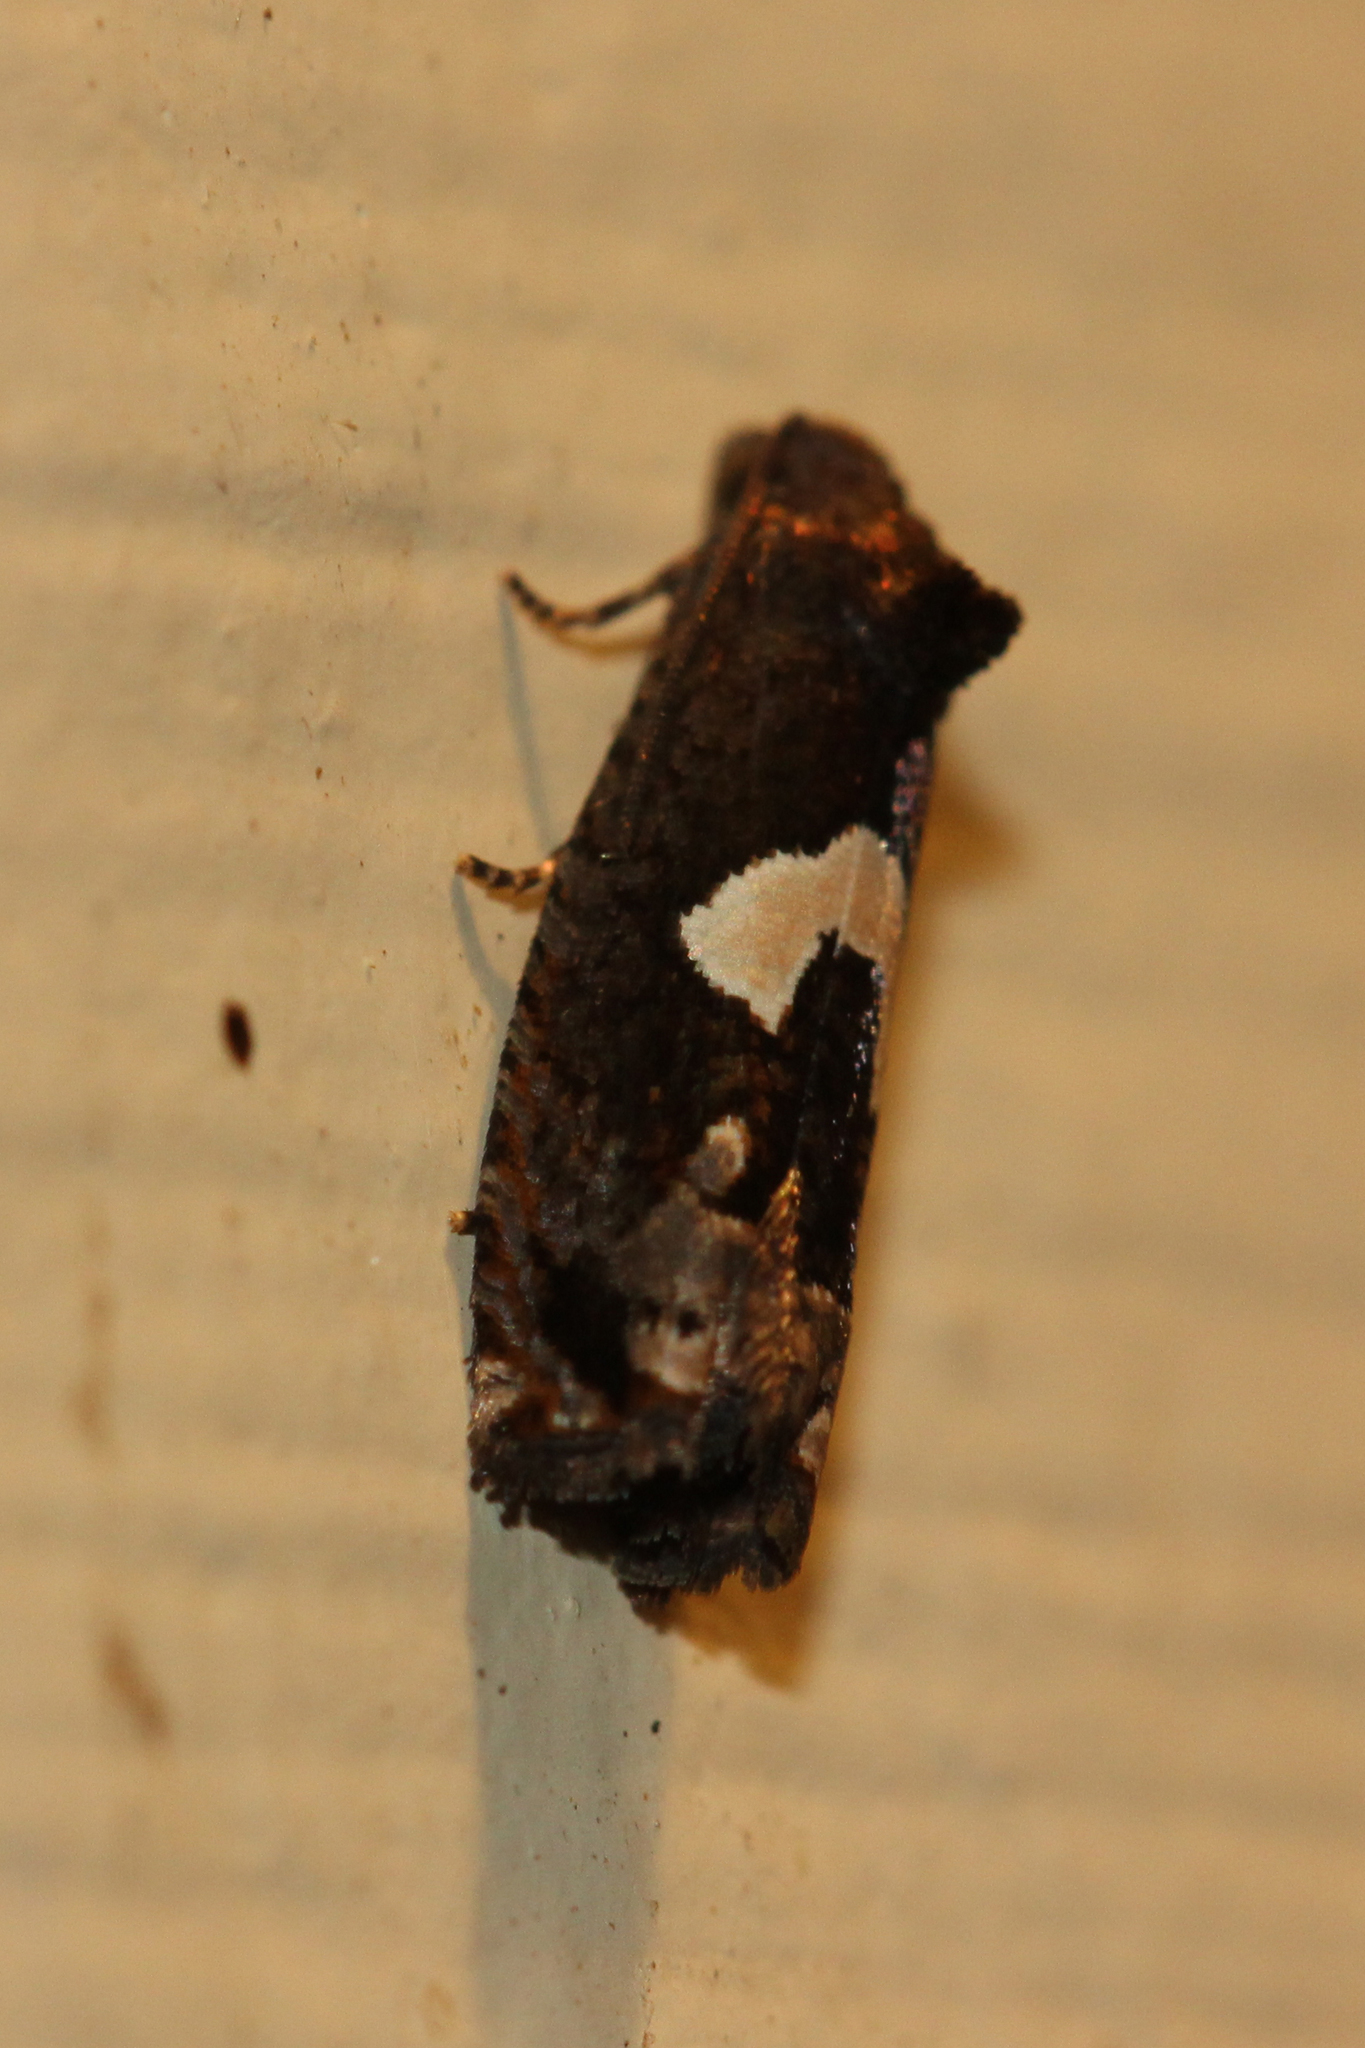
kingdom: Animalia
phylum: Arthropoda
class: Insecta
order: Lepidoptera
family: Tortricidae
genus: Epiblema
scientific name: Epiblema otiosana
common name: Bidens borer moth
